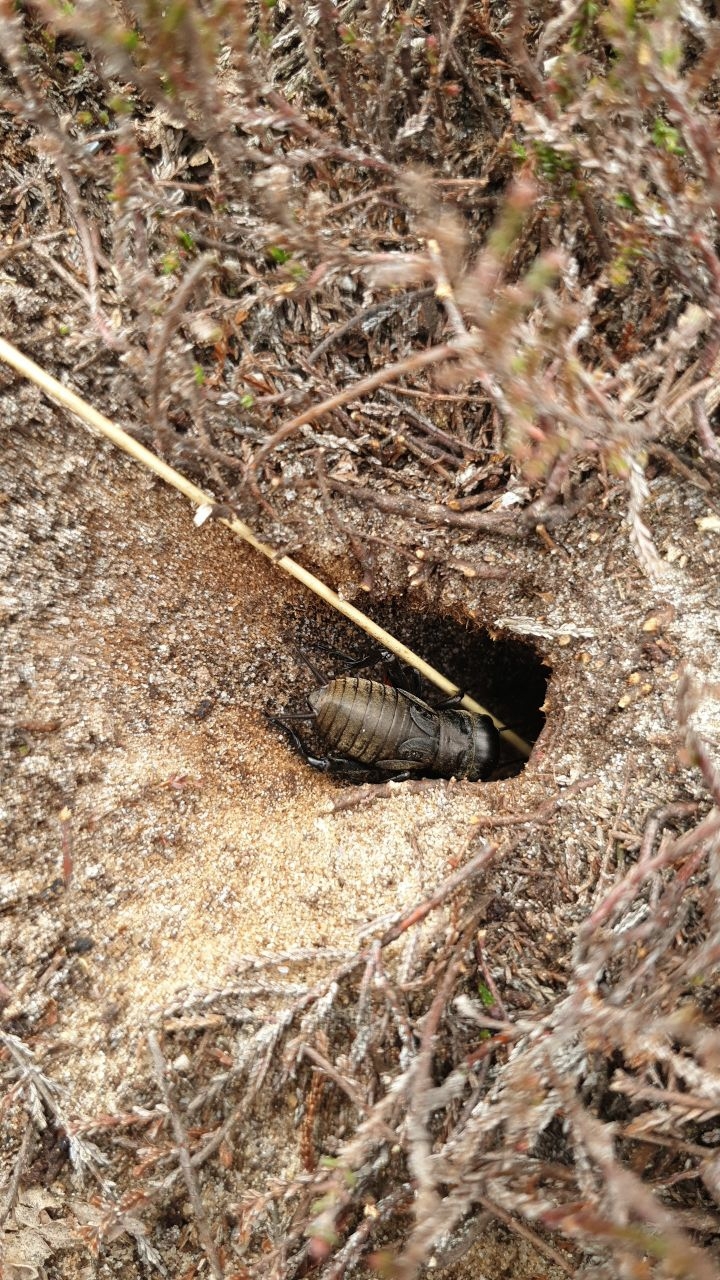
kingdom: Animalia
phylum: Arthropoda
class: Insecta
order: Orthoptera
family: Gryllidae
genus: Gryllus
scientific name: Gryllus campestris
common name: Field cricket
